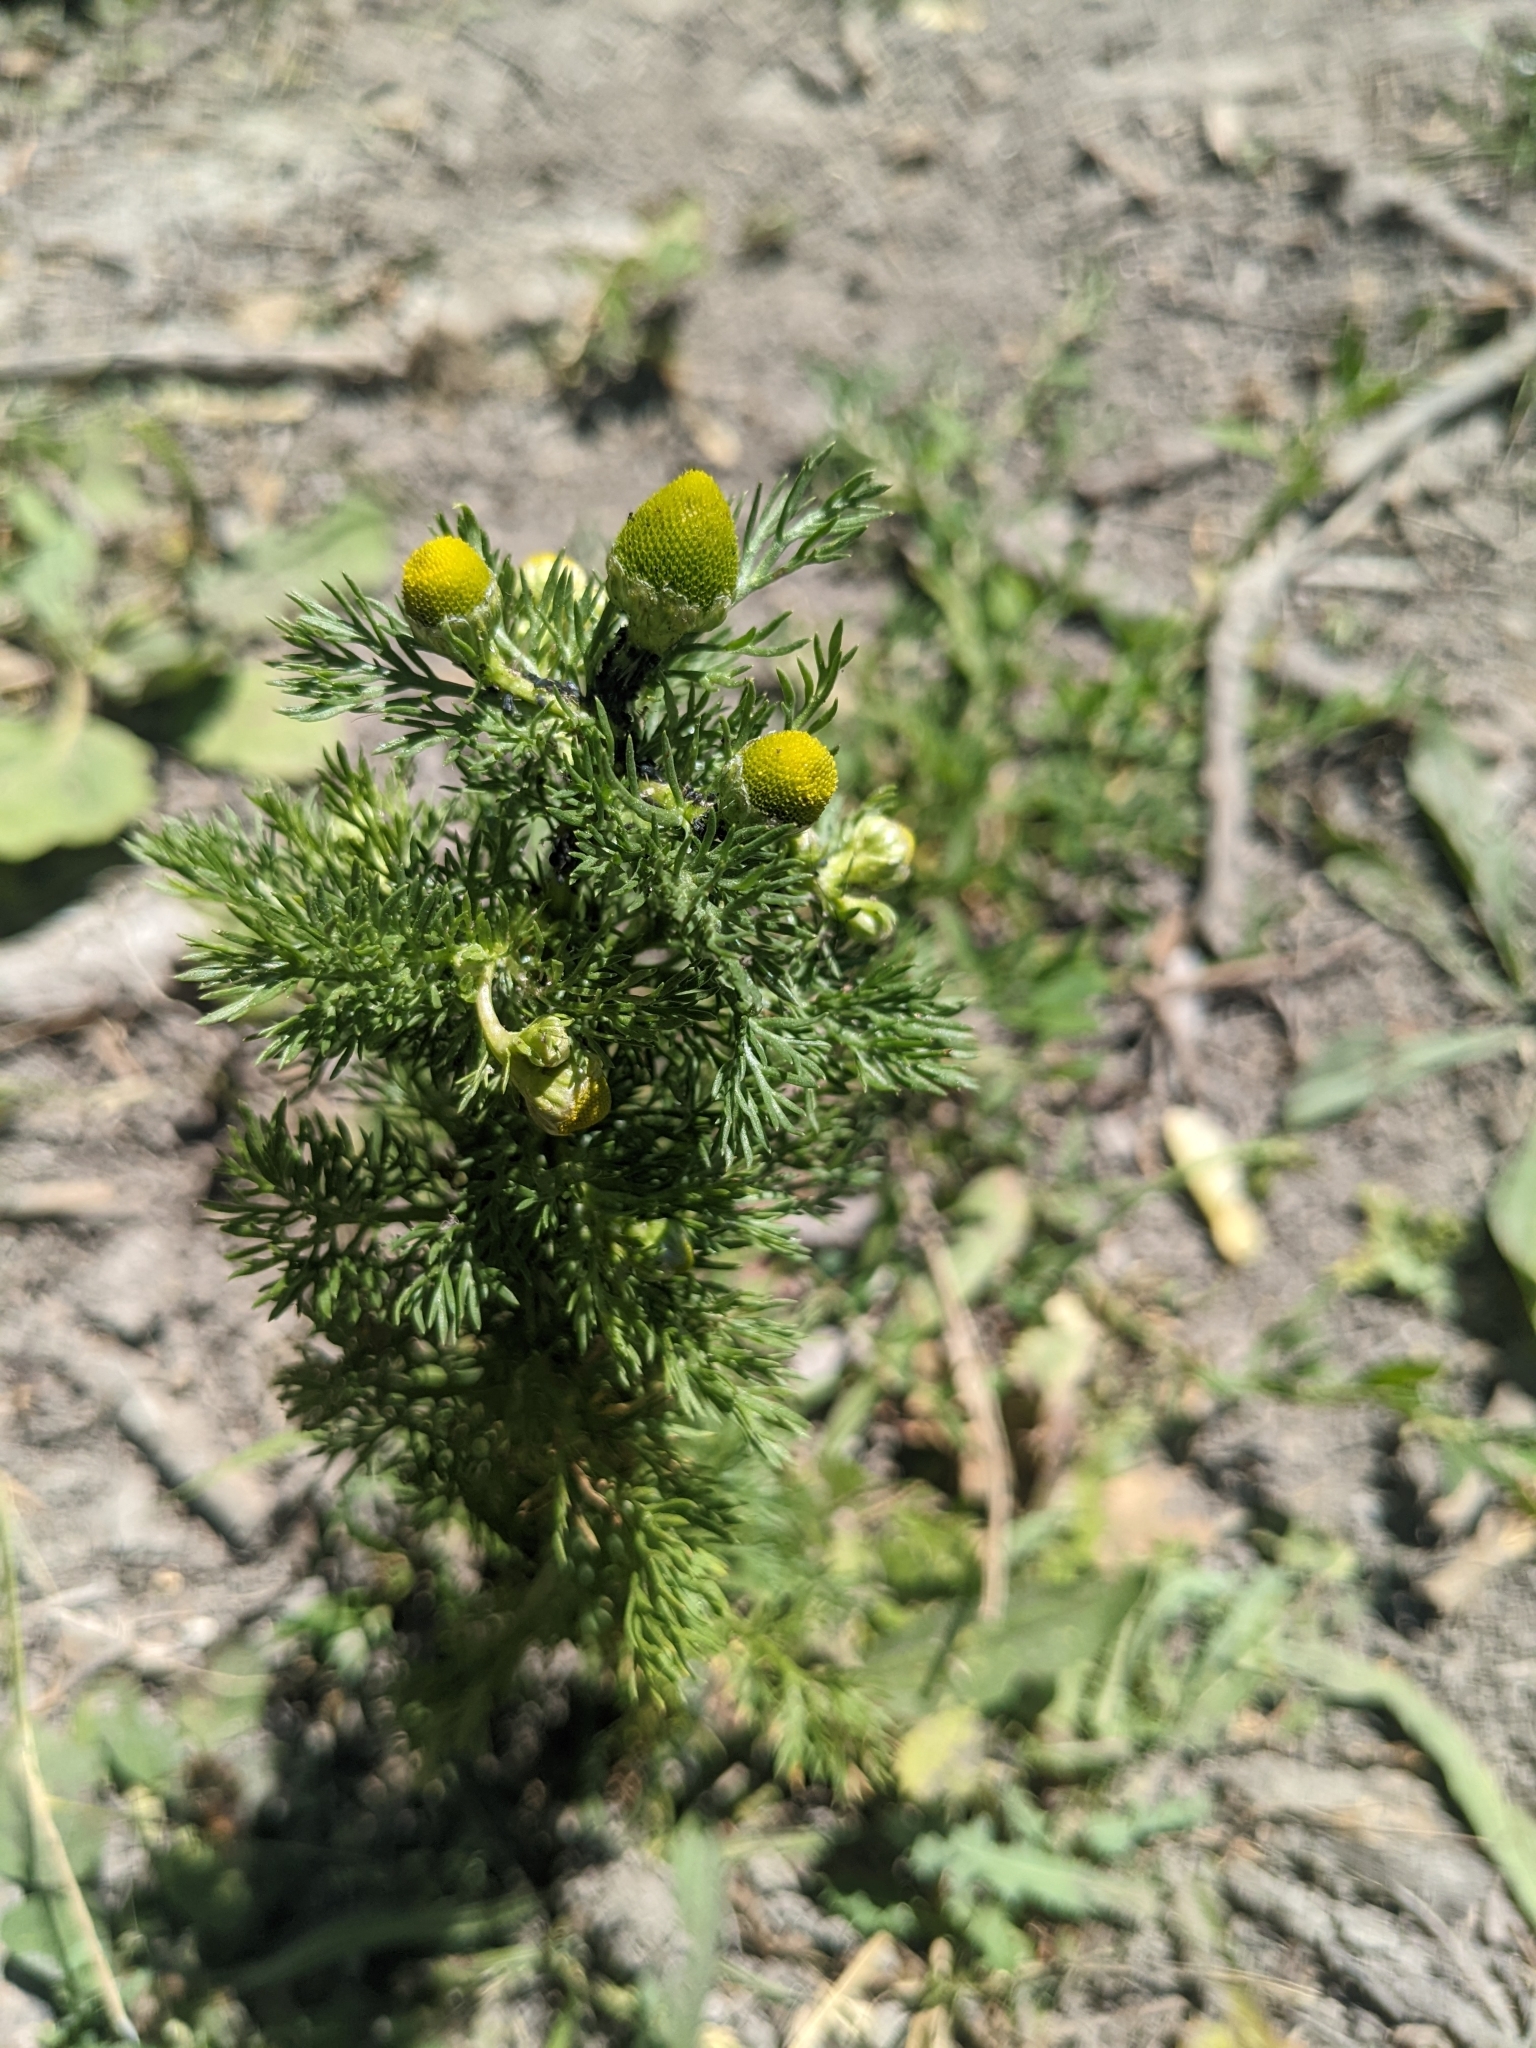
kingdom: Plantae
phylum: Tracheophyta
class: Magnoliopsida
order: Asterales
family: Asteraceae
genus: Matricaria
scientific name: Matricaria discoidea
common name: Disc mayweed
